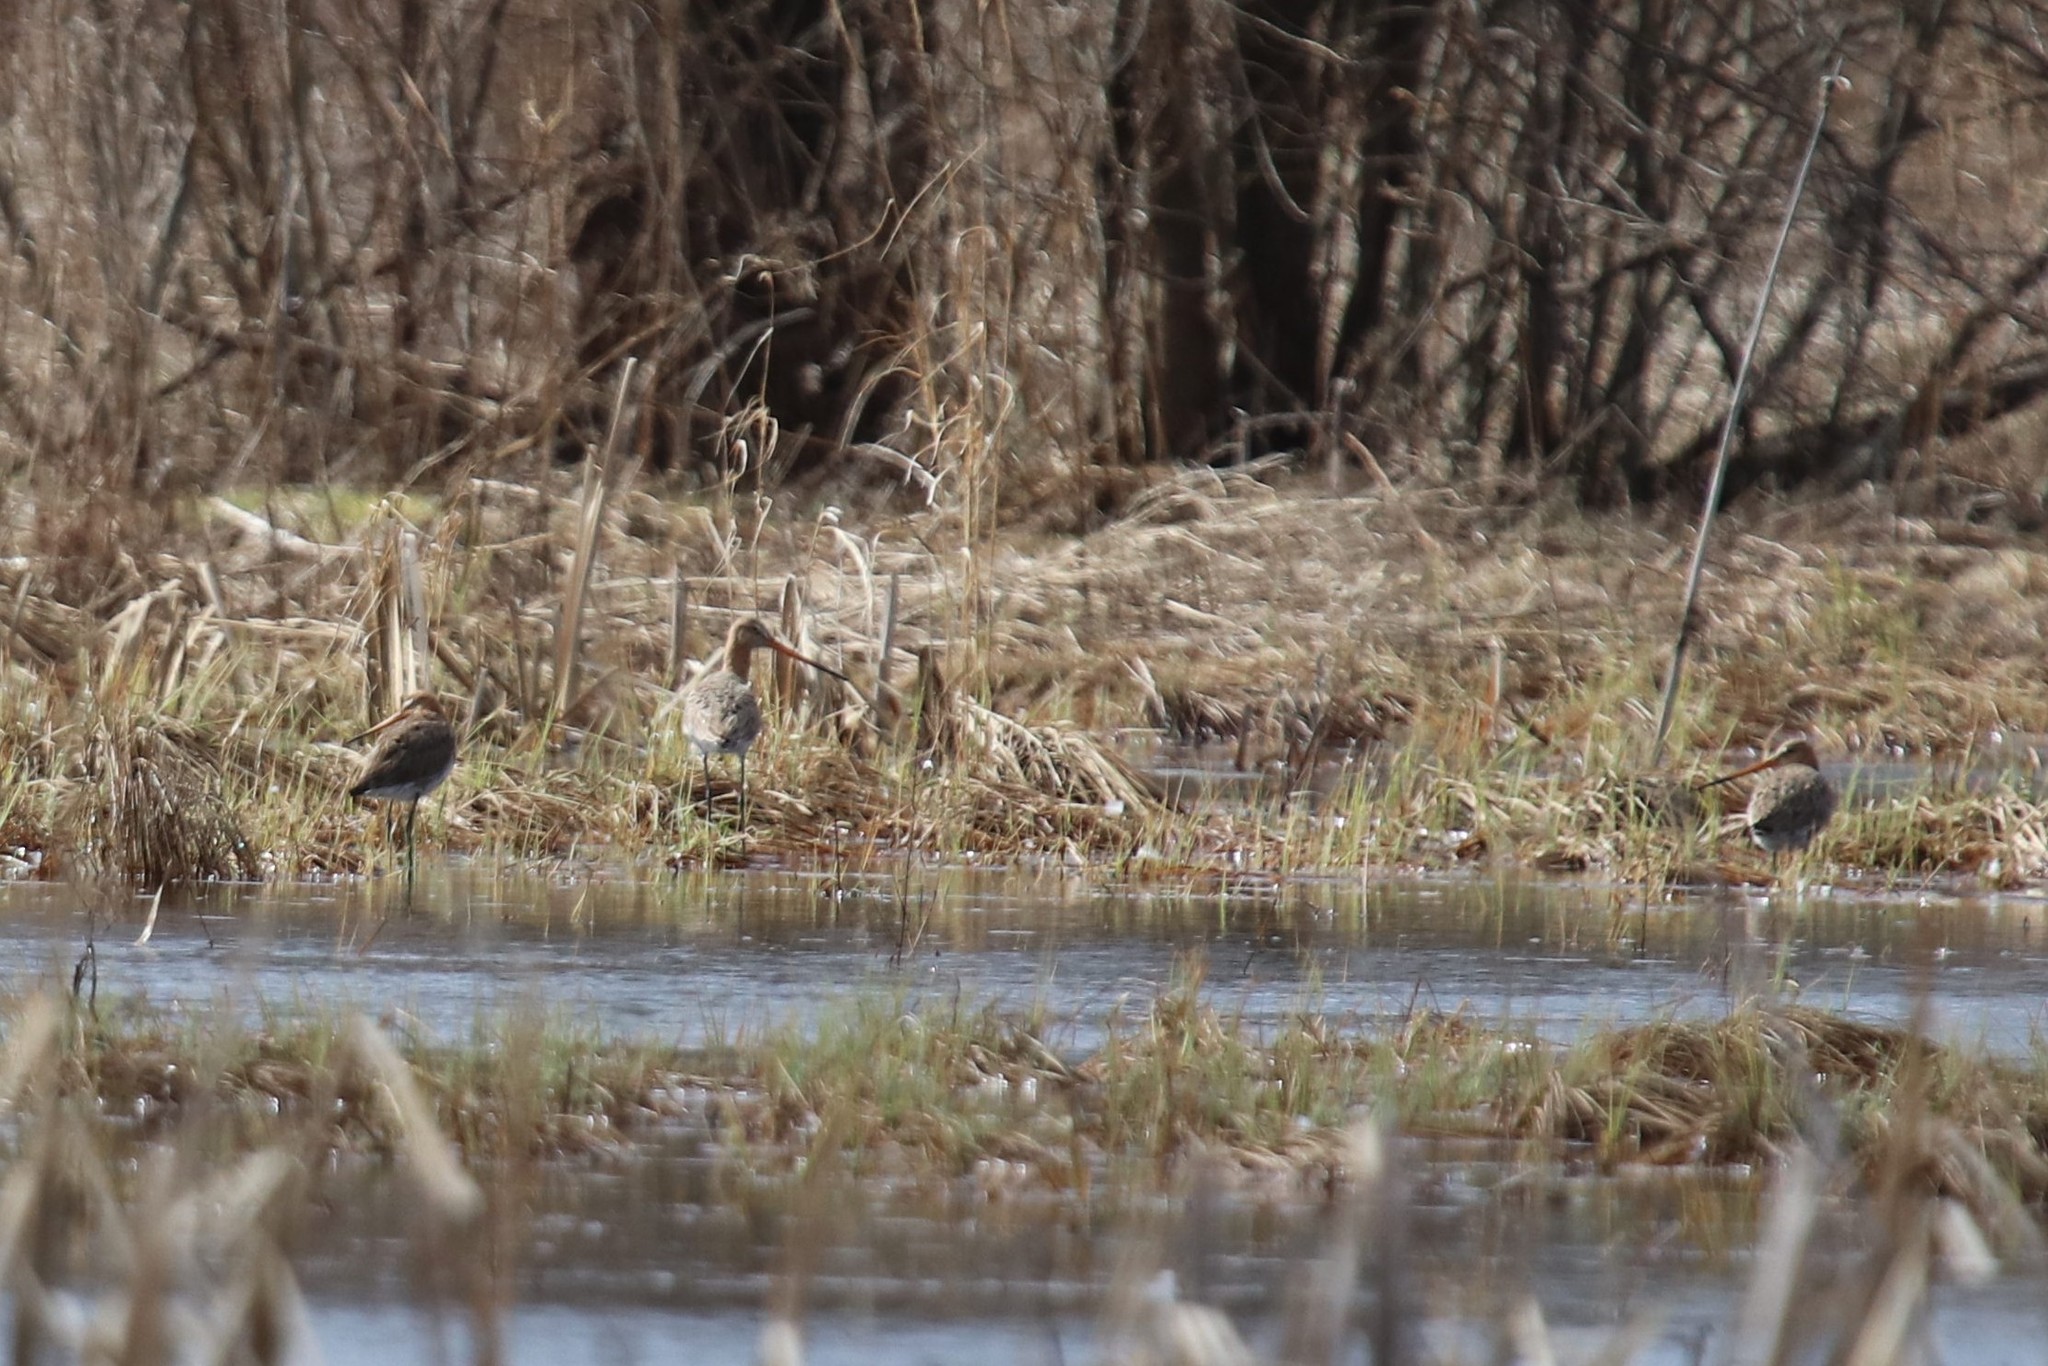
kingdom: Animalia
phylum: Chordata
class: Aves
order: Charadriiformes
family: Scolopacidae
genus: Limosa
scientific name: Limosa limosa
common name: Black-tailed godwit
